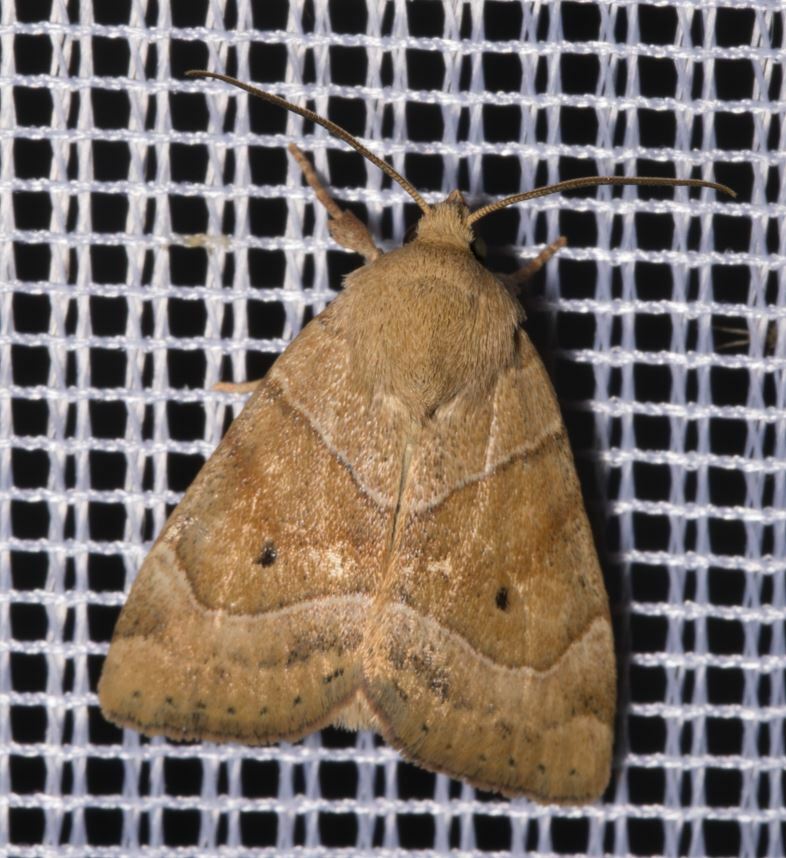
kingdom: Animalia
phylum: Arthropoda
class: Insecta
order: Lepidoptera
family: Noctuidae
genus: Cosmia
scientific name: Cosmia trapezina
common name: Dun-bar
